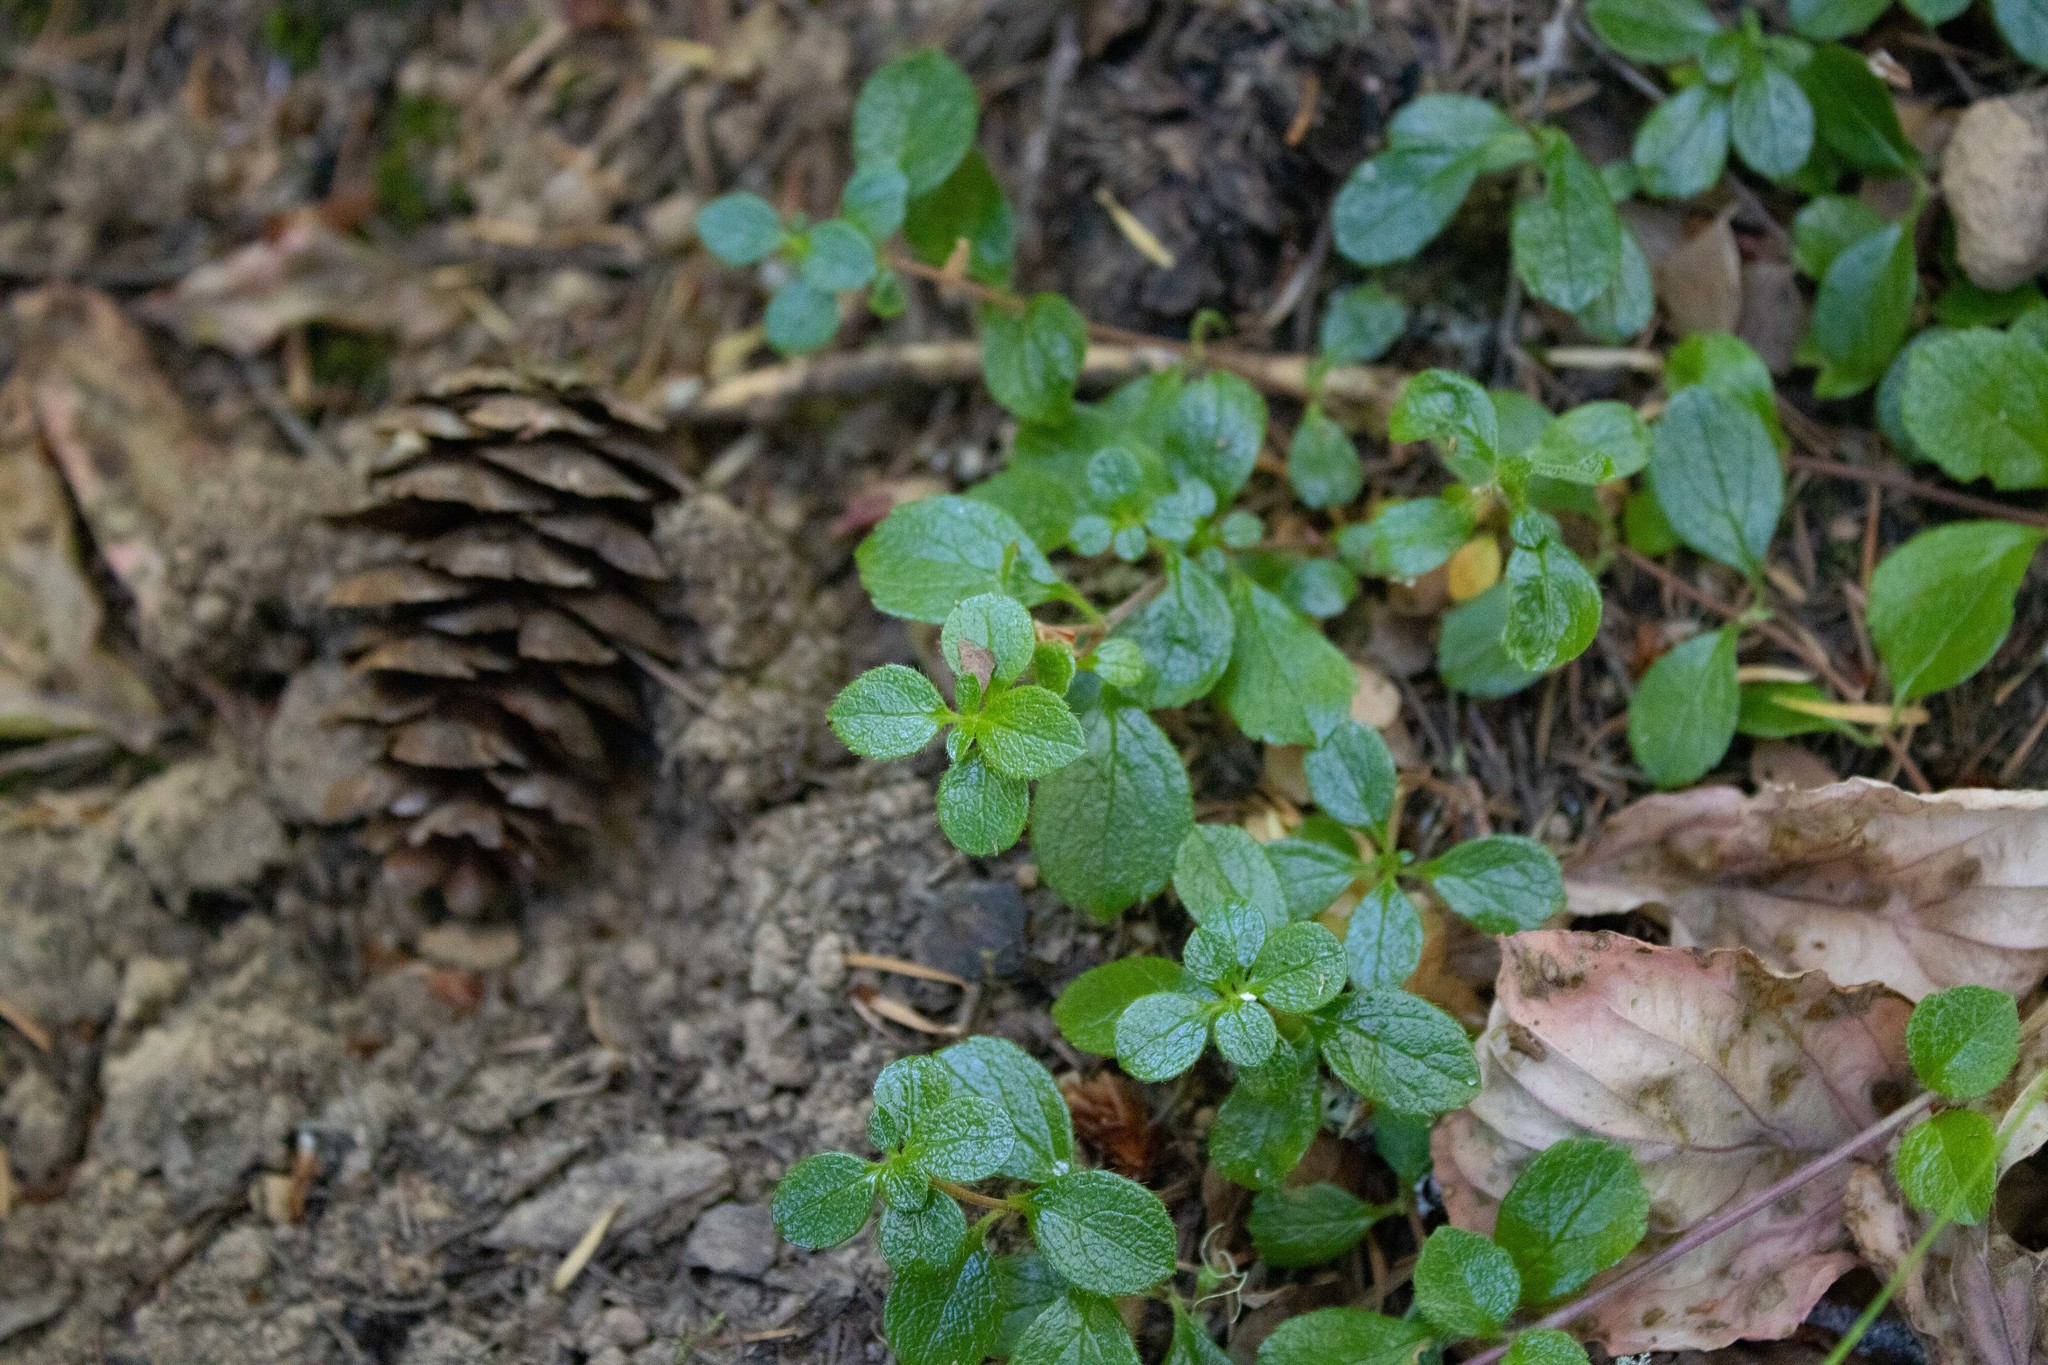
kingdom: Plantae
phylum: Tracheophyta
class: Magnoliopsida
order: Dipsacales
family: Caprifoliaceae
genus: Linnaea
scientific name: Linnaea borealis
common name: Twinflower
